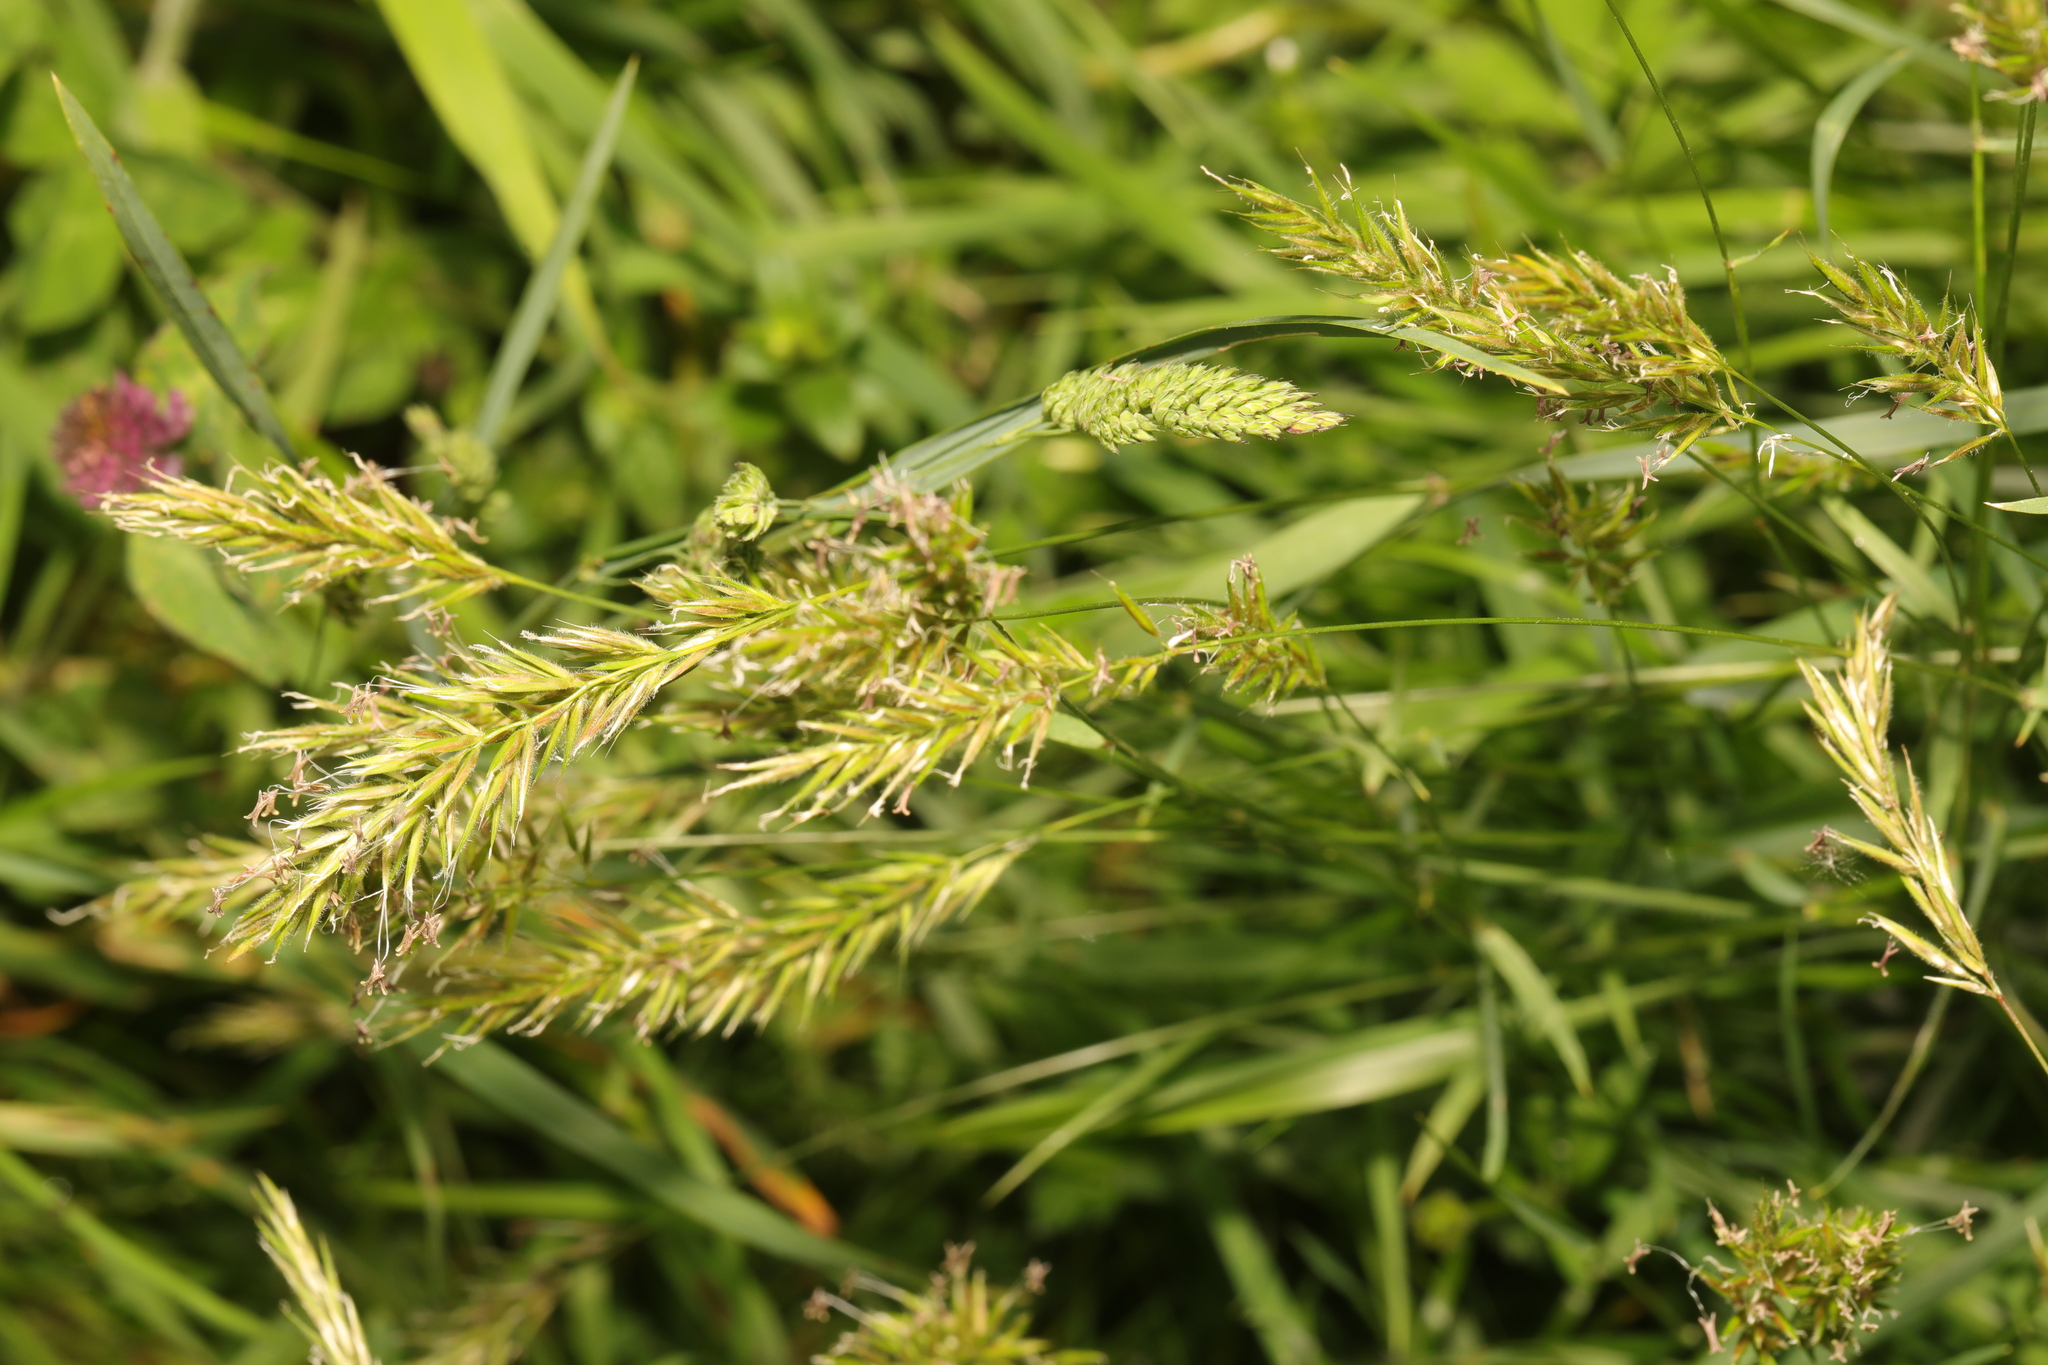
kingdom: Plantae
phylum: Tracheophyta
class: Liliopsida
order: Poales
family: Poaceae
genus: Anthoxanthum
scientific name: Anthoxanthum odoratum
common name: Sweet vernalgrass
